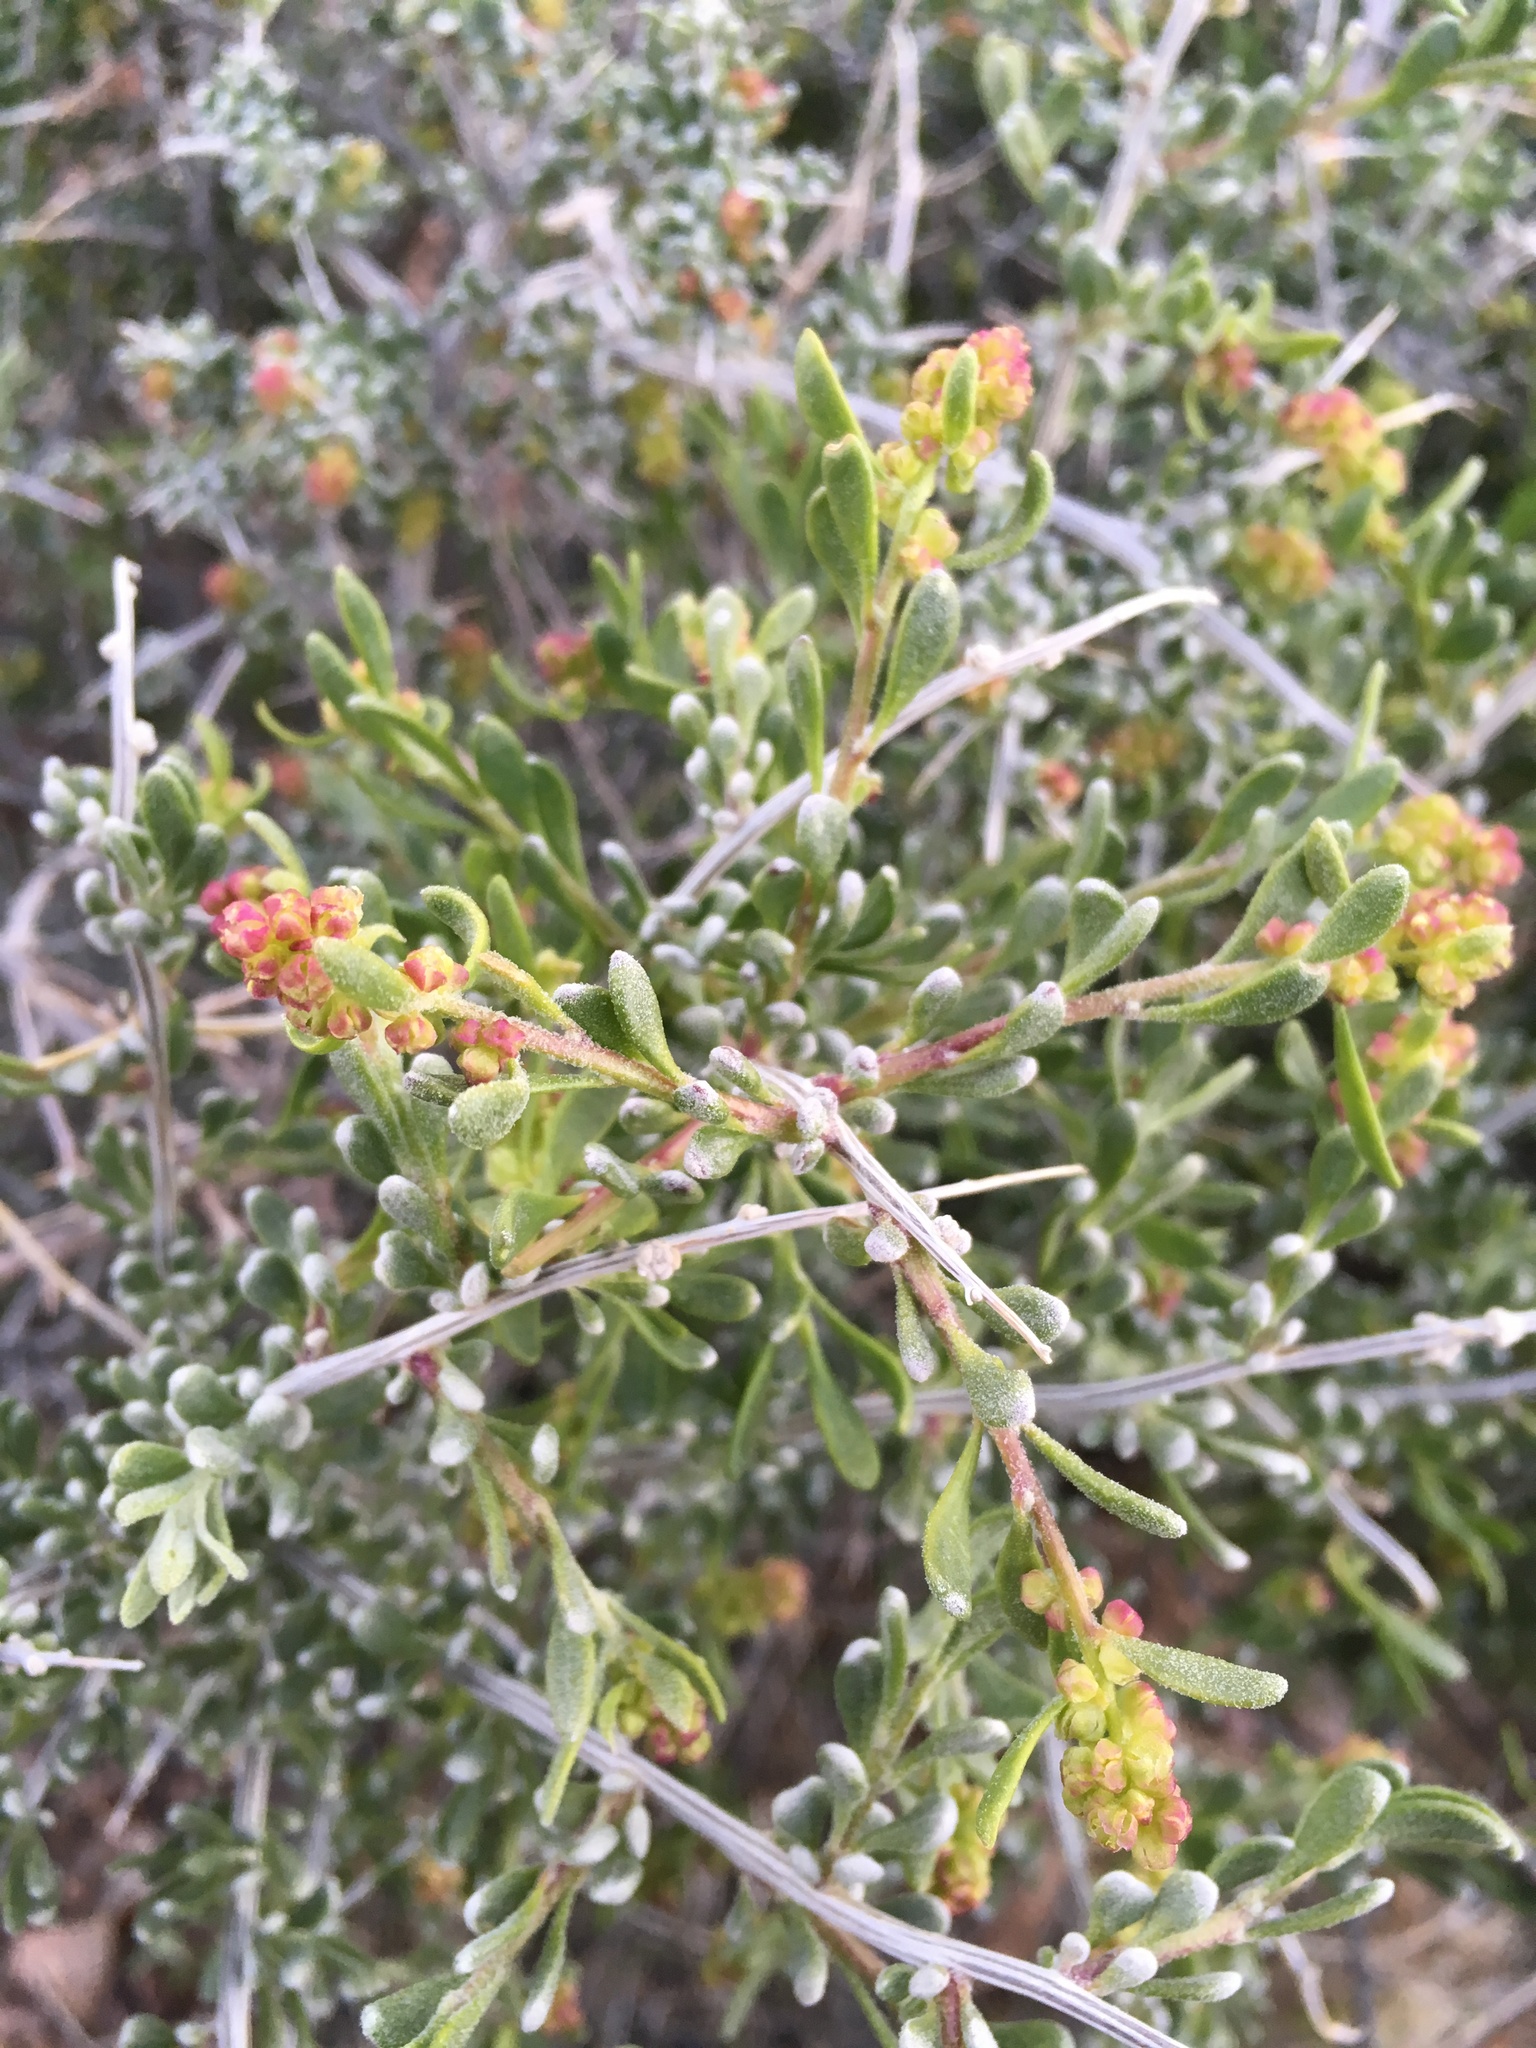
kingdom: Plantae
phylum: Tracheophyta
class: Magnoliopsida
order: Caryophyllales
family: Amaranthaceae
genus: Grayia
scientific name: Grayia spinosa
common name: Spiny hopsage
